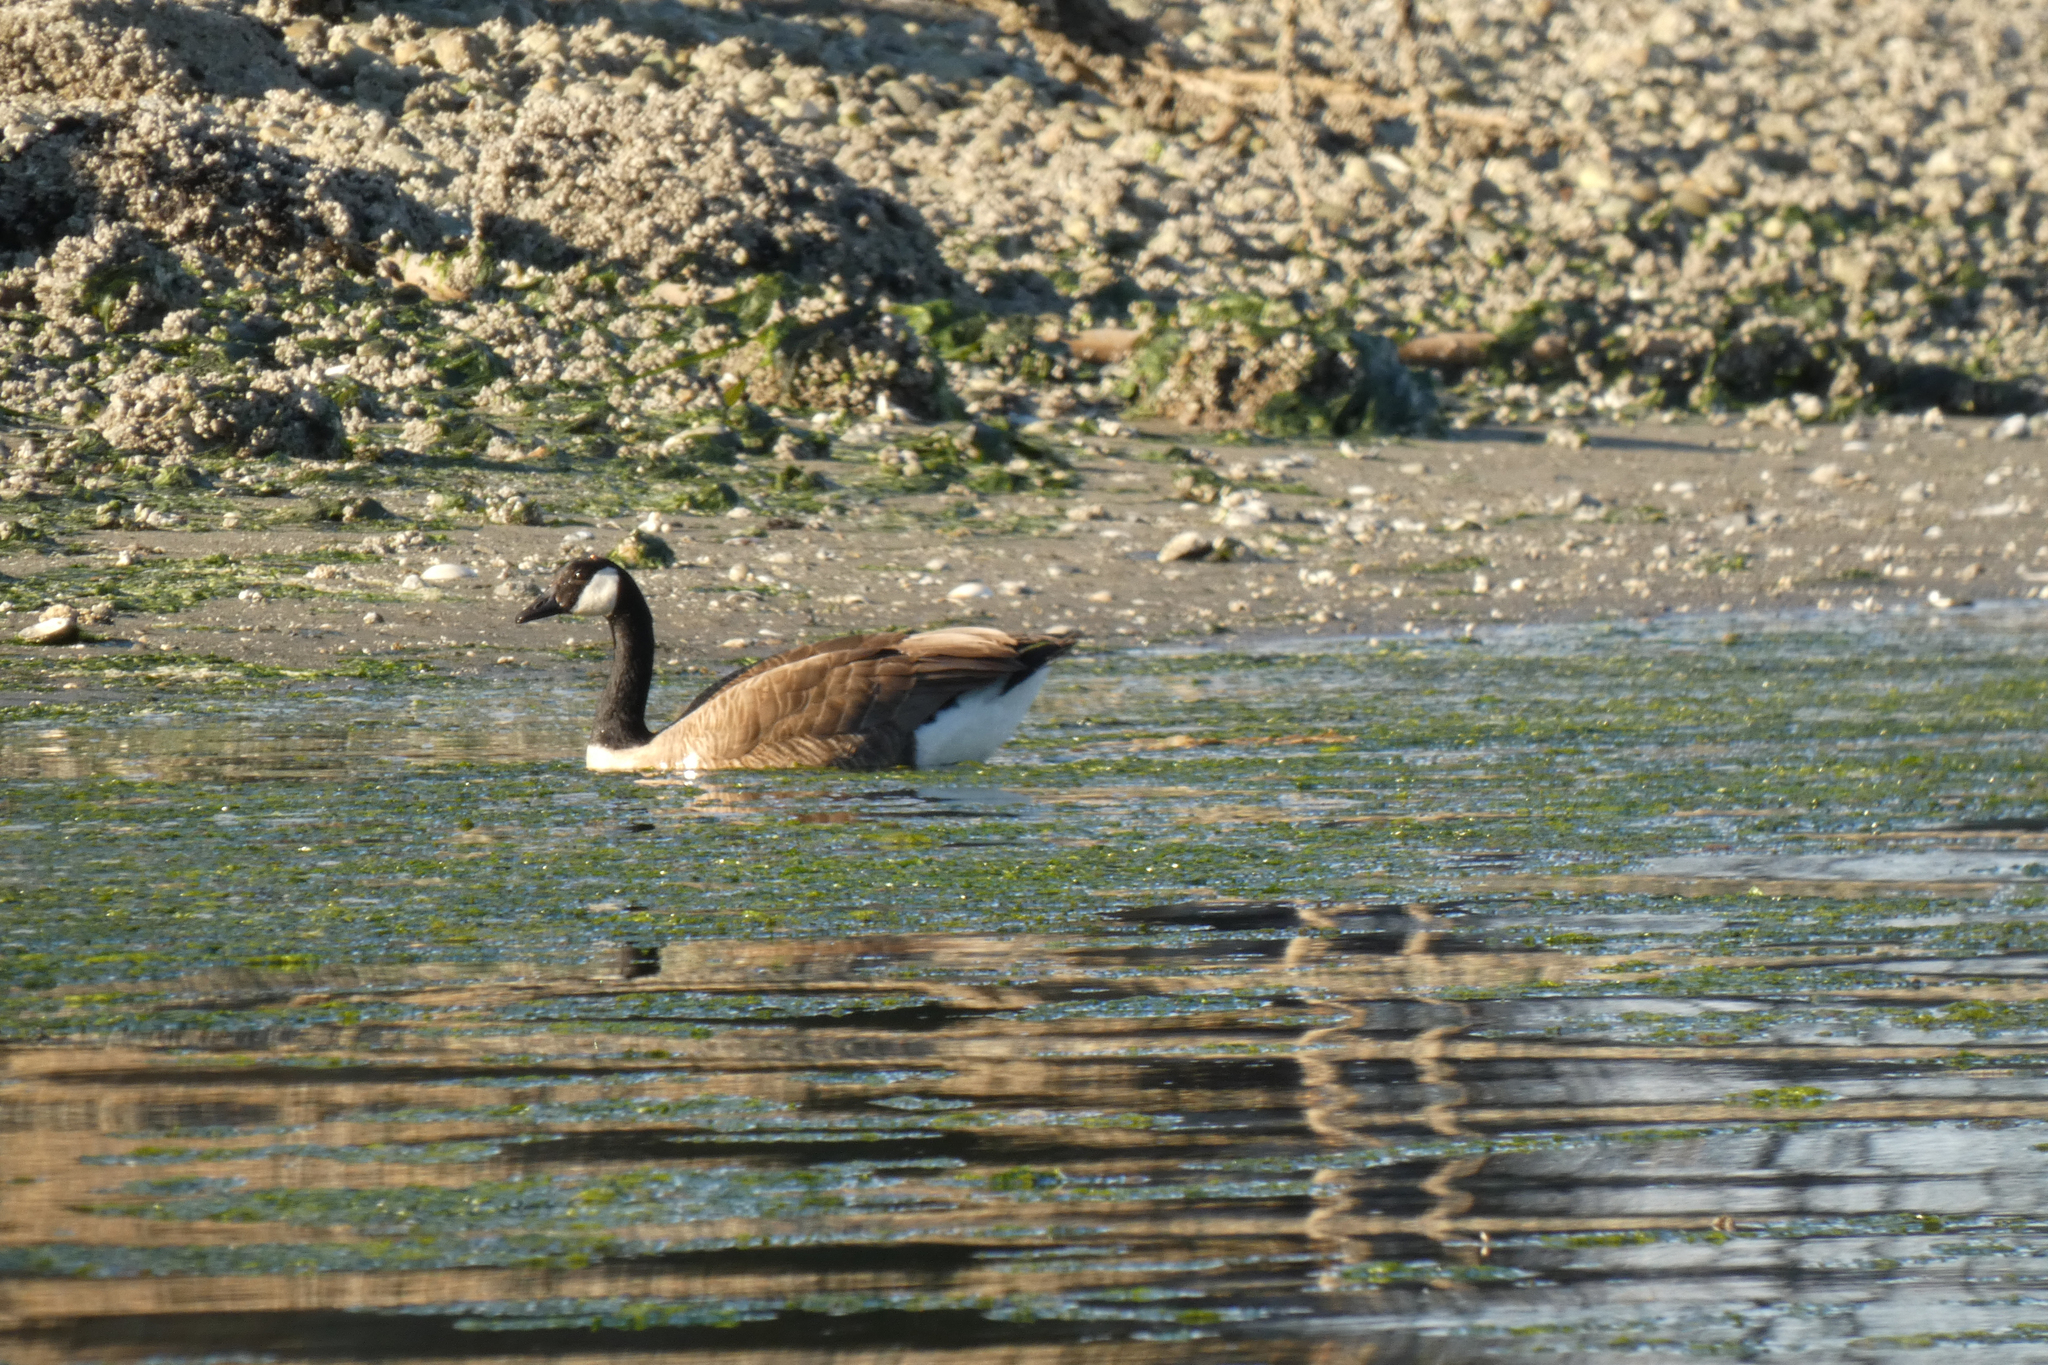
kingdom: Animalia
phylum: Chordata
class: Aves
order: Anseriformes
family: Anatidae
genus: Branta
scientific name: Branta canadensis
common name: Canada goose
